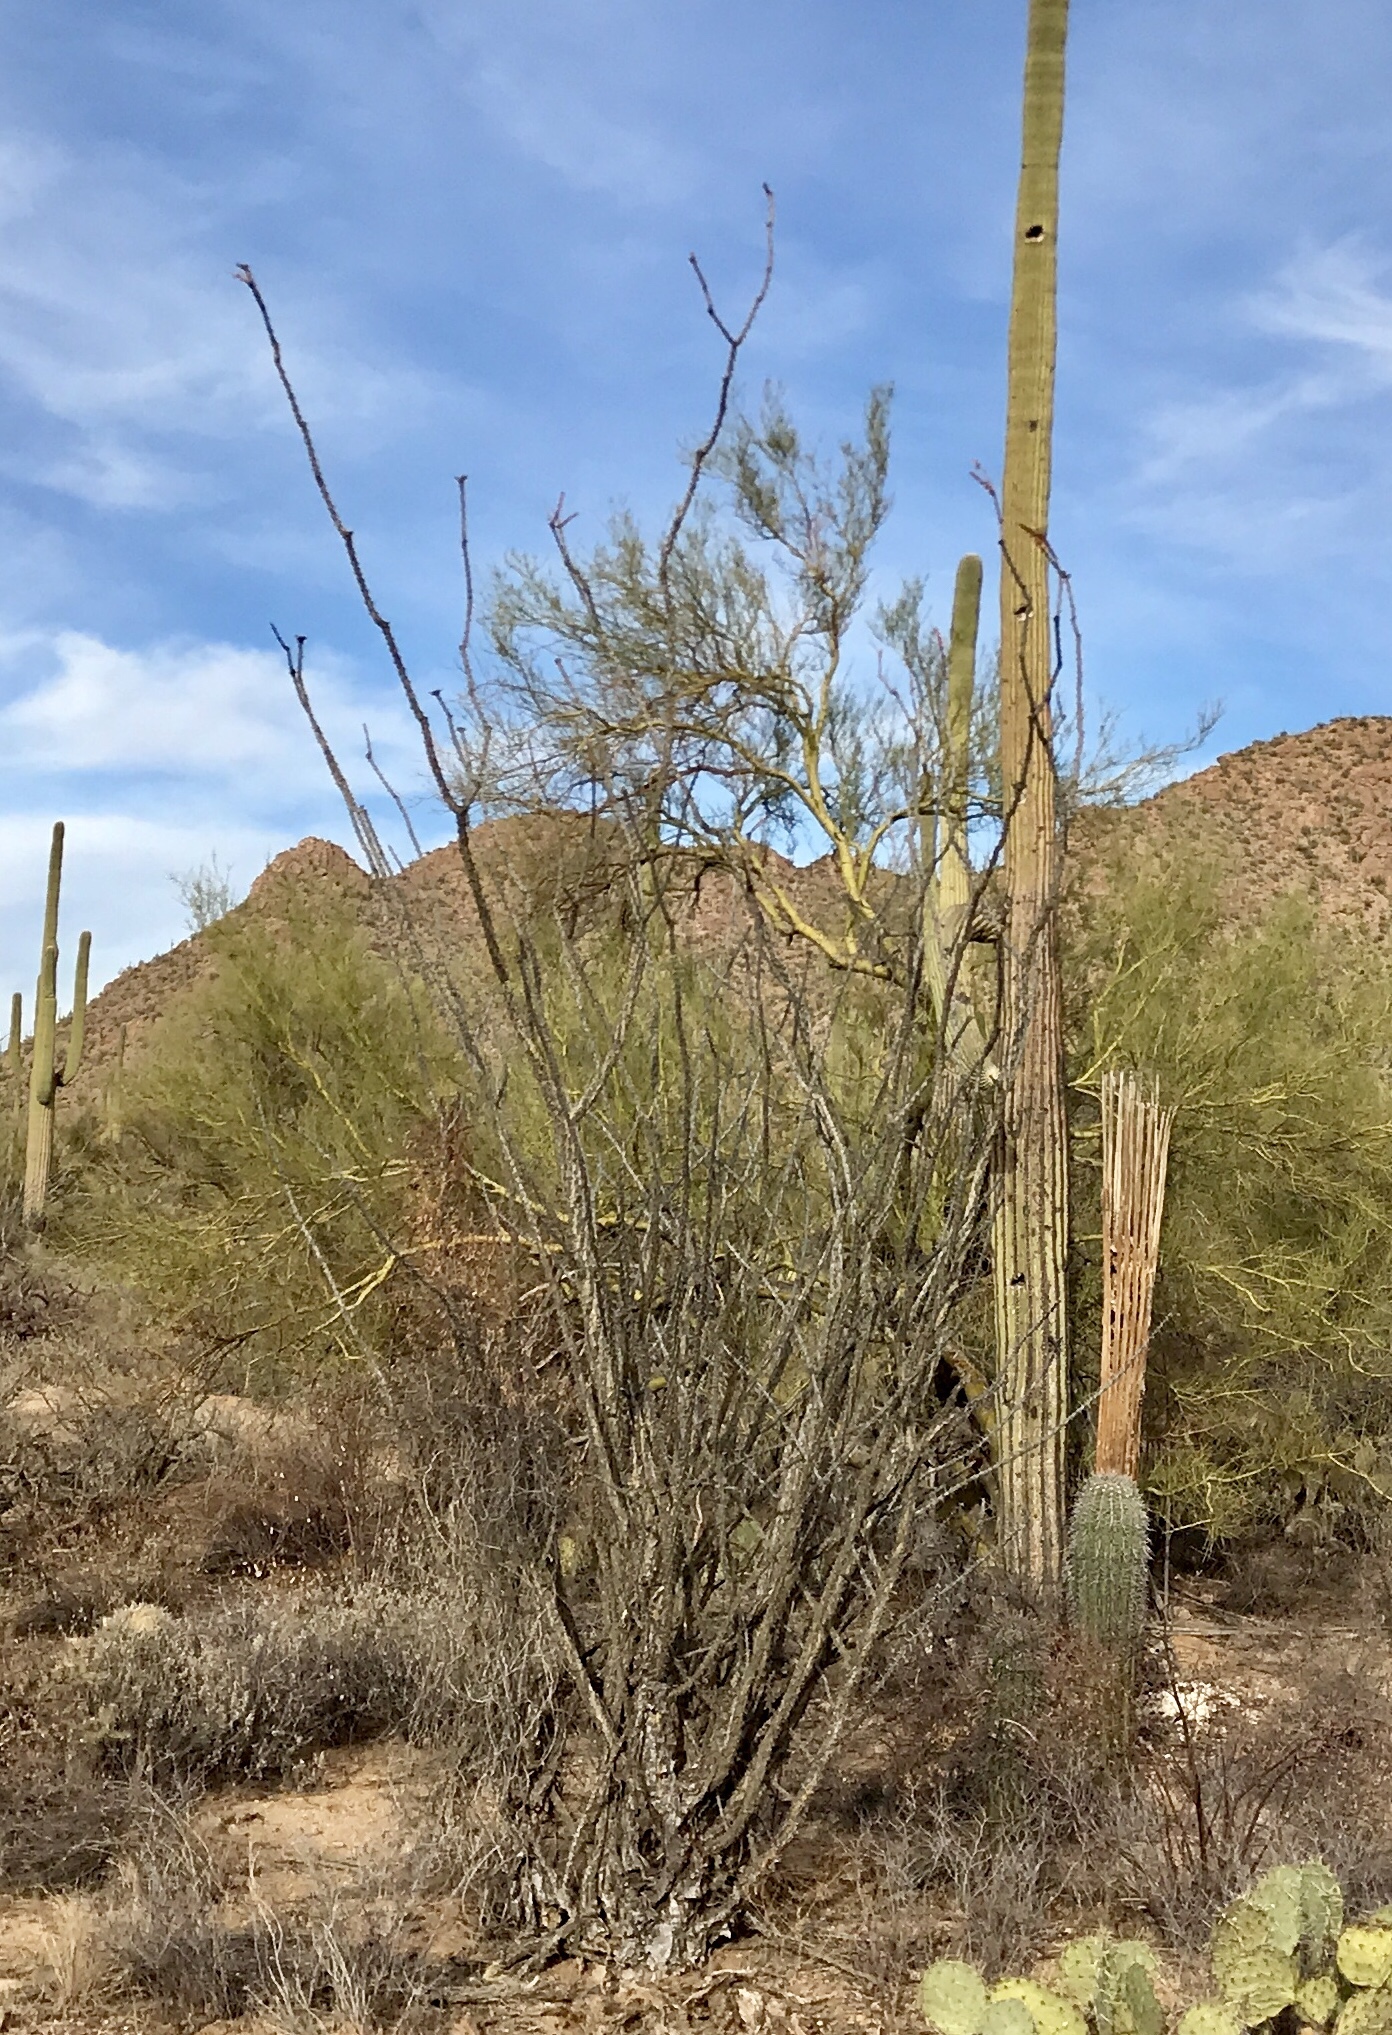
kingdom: Plantae
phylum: Tracheophyta
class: Magnoliopsida
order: Ericales
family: Fouquieriaceae
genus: Fouquieria
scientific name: Fouquieria splendens
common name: Vine-cactus
